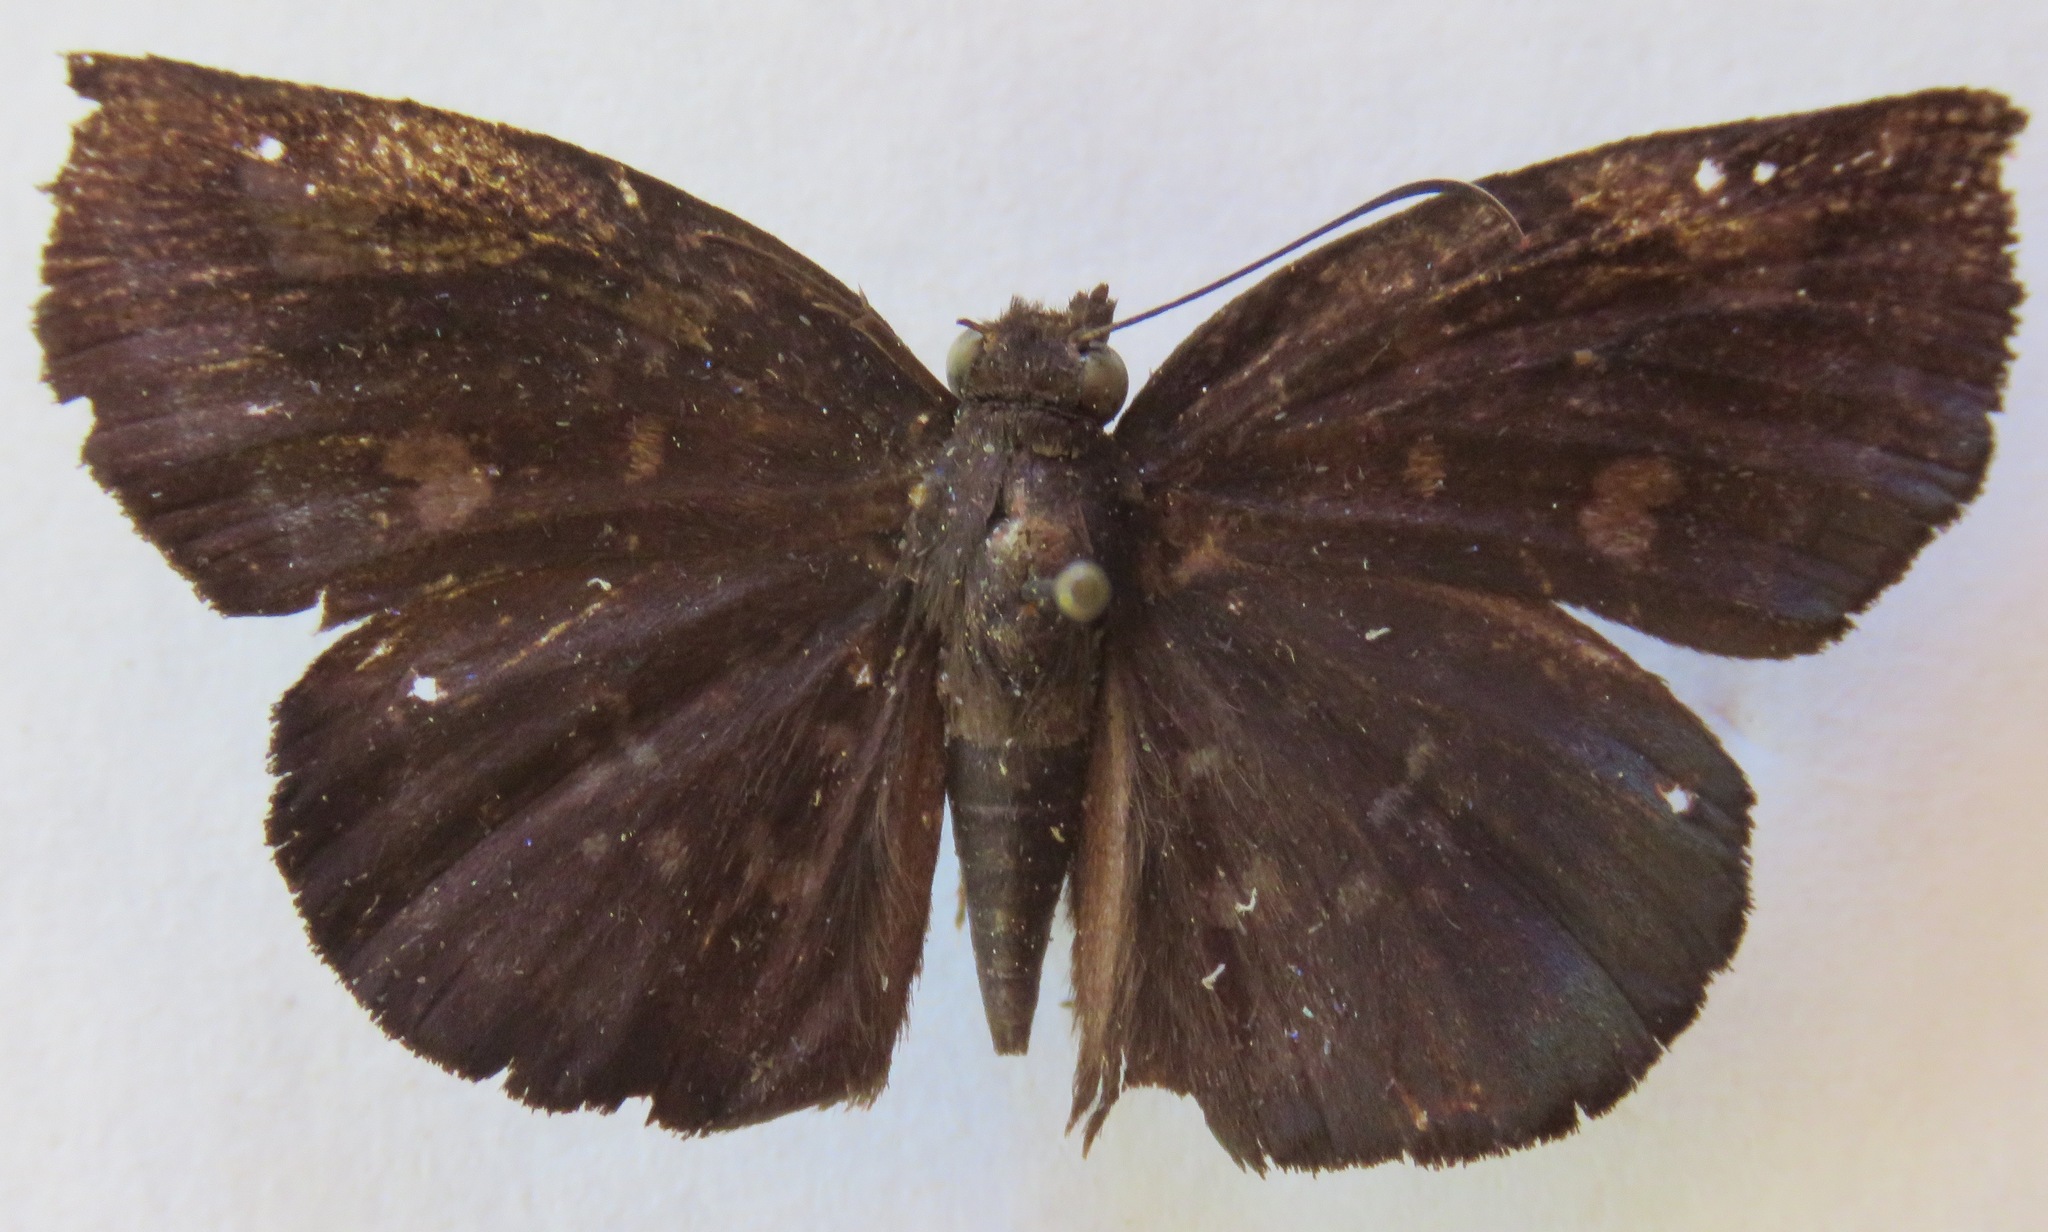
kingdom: Animalia
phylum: Arthropoda
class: Insecta
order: Lepidoptera
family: Hesperiidae
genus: Achlyodes
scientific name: Achlyodes thraso
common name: Sickle-winged skipper
